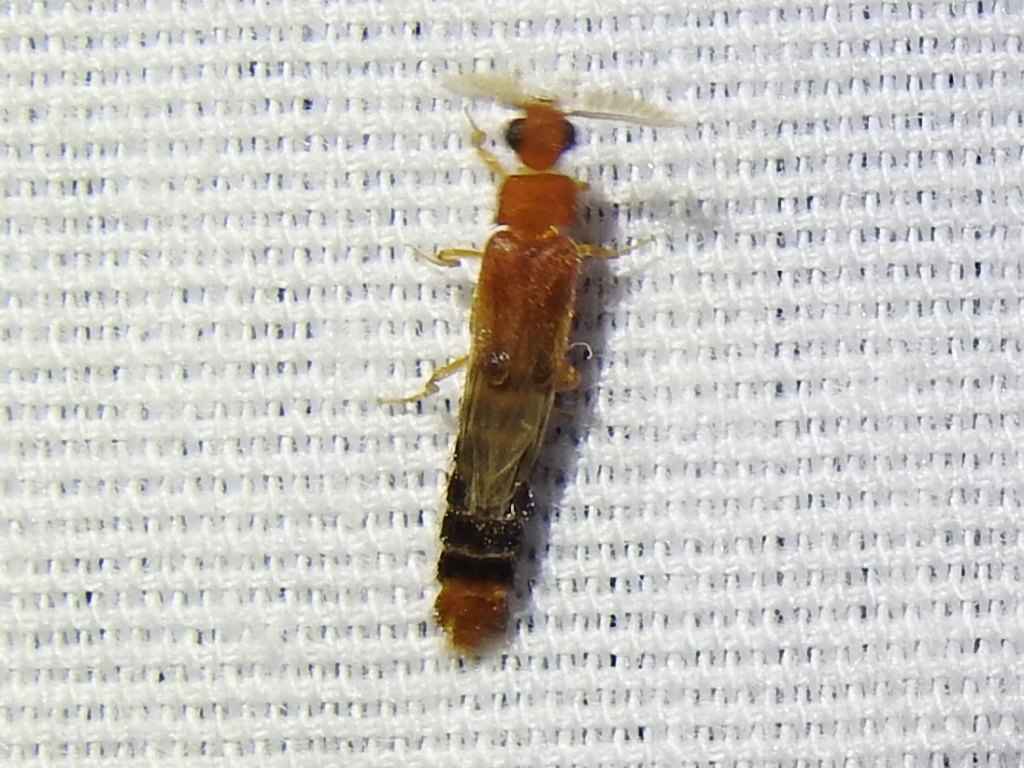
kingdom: Animalia
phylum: Arthropoda
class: Insecta
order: Coleoptera
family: Phengodidae
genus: Distremocephalus
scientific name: Distremocephalus texanus
